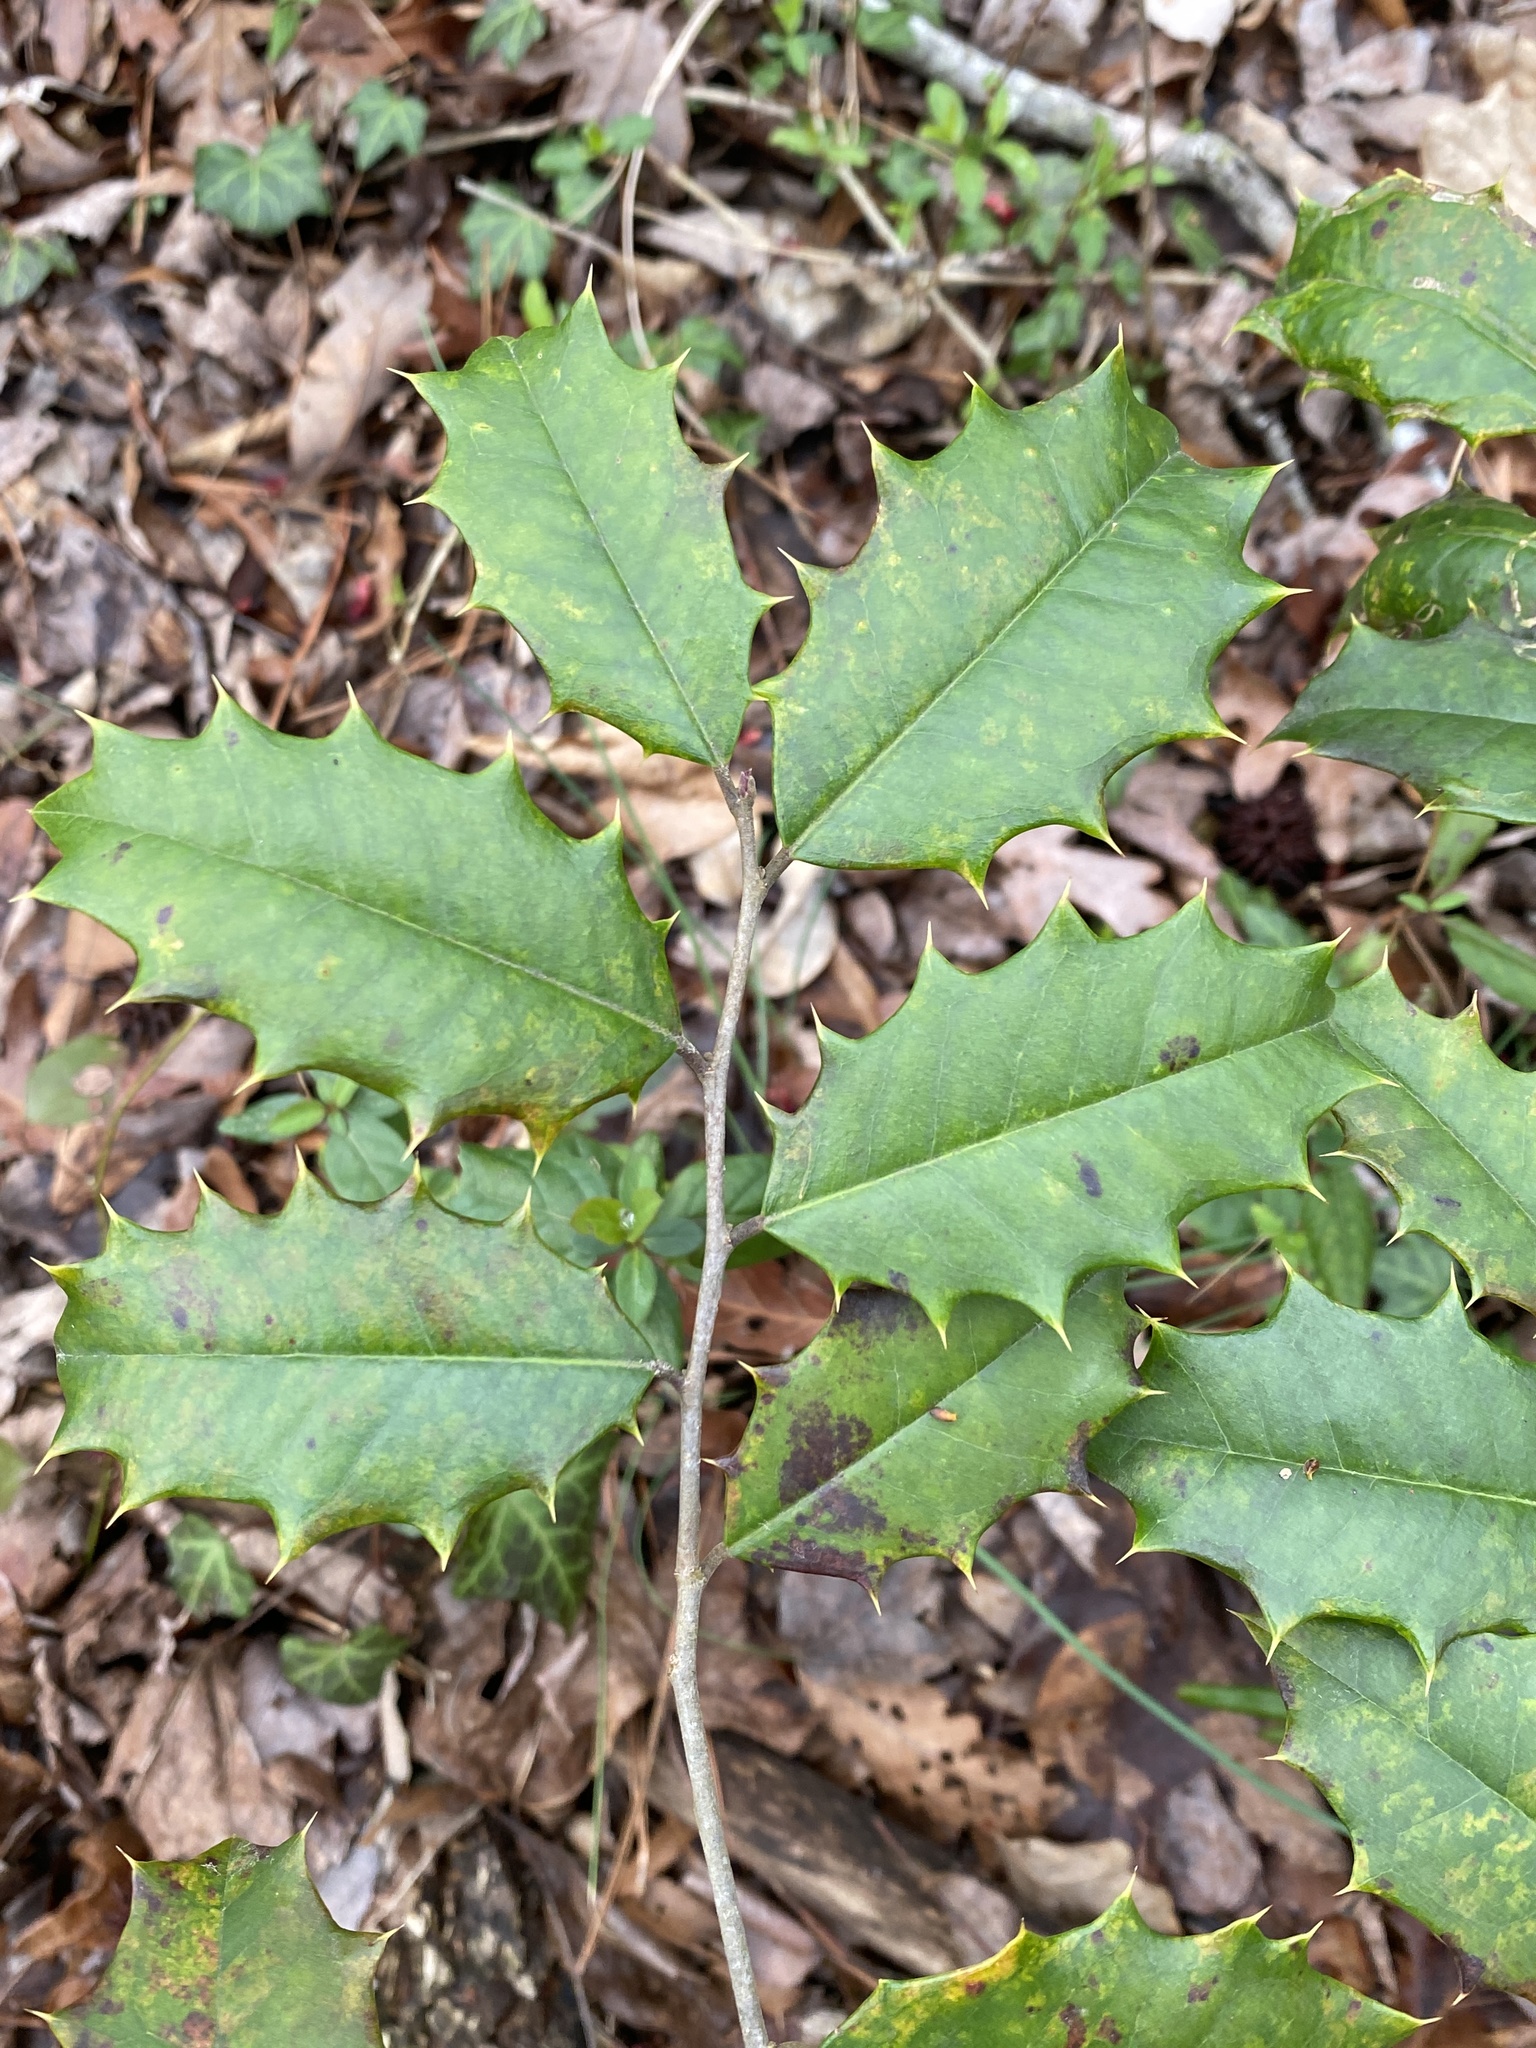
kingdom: Plantae
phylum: Tracheophyta
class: Magnoliopsida
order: Aquifoliales
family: Aquifoliaceae
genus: Ilex
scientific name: Ilex opaca
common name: American holly
